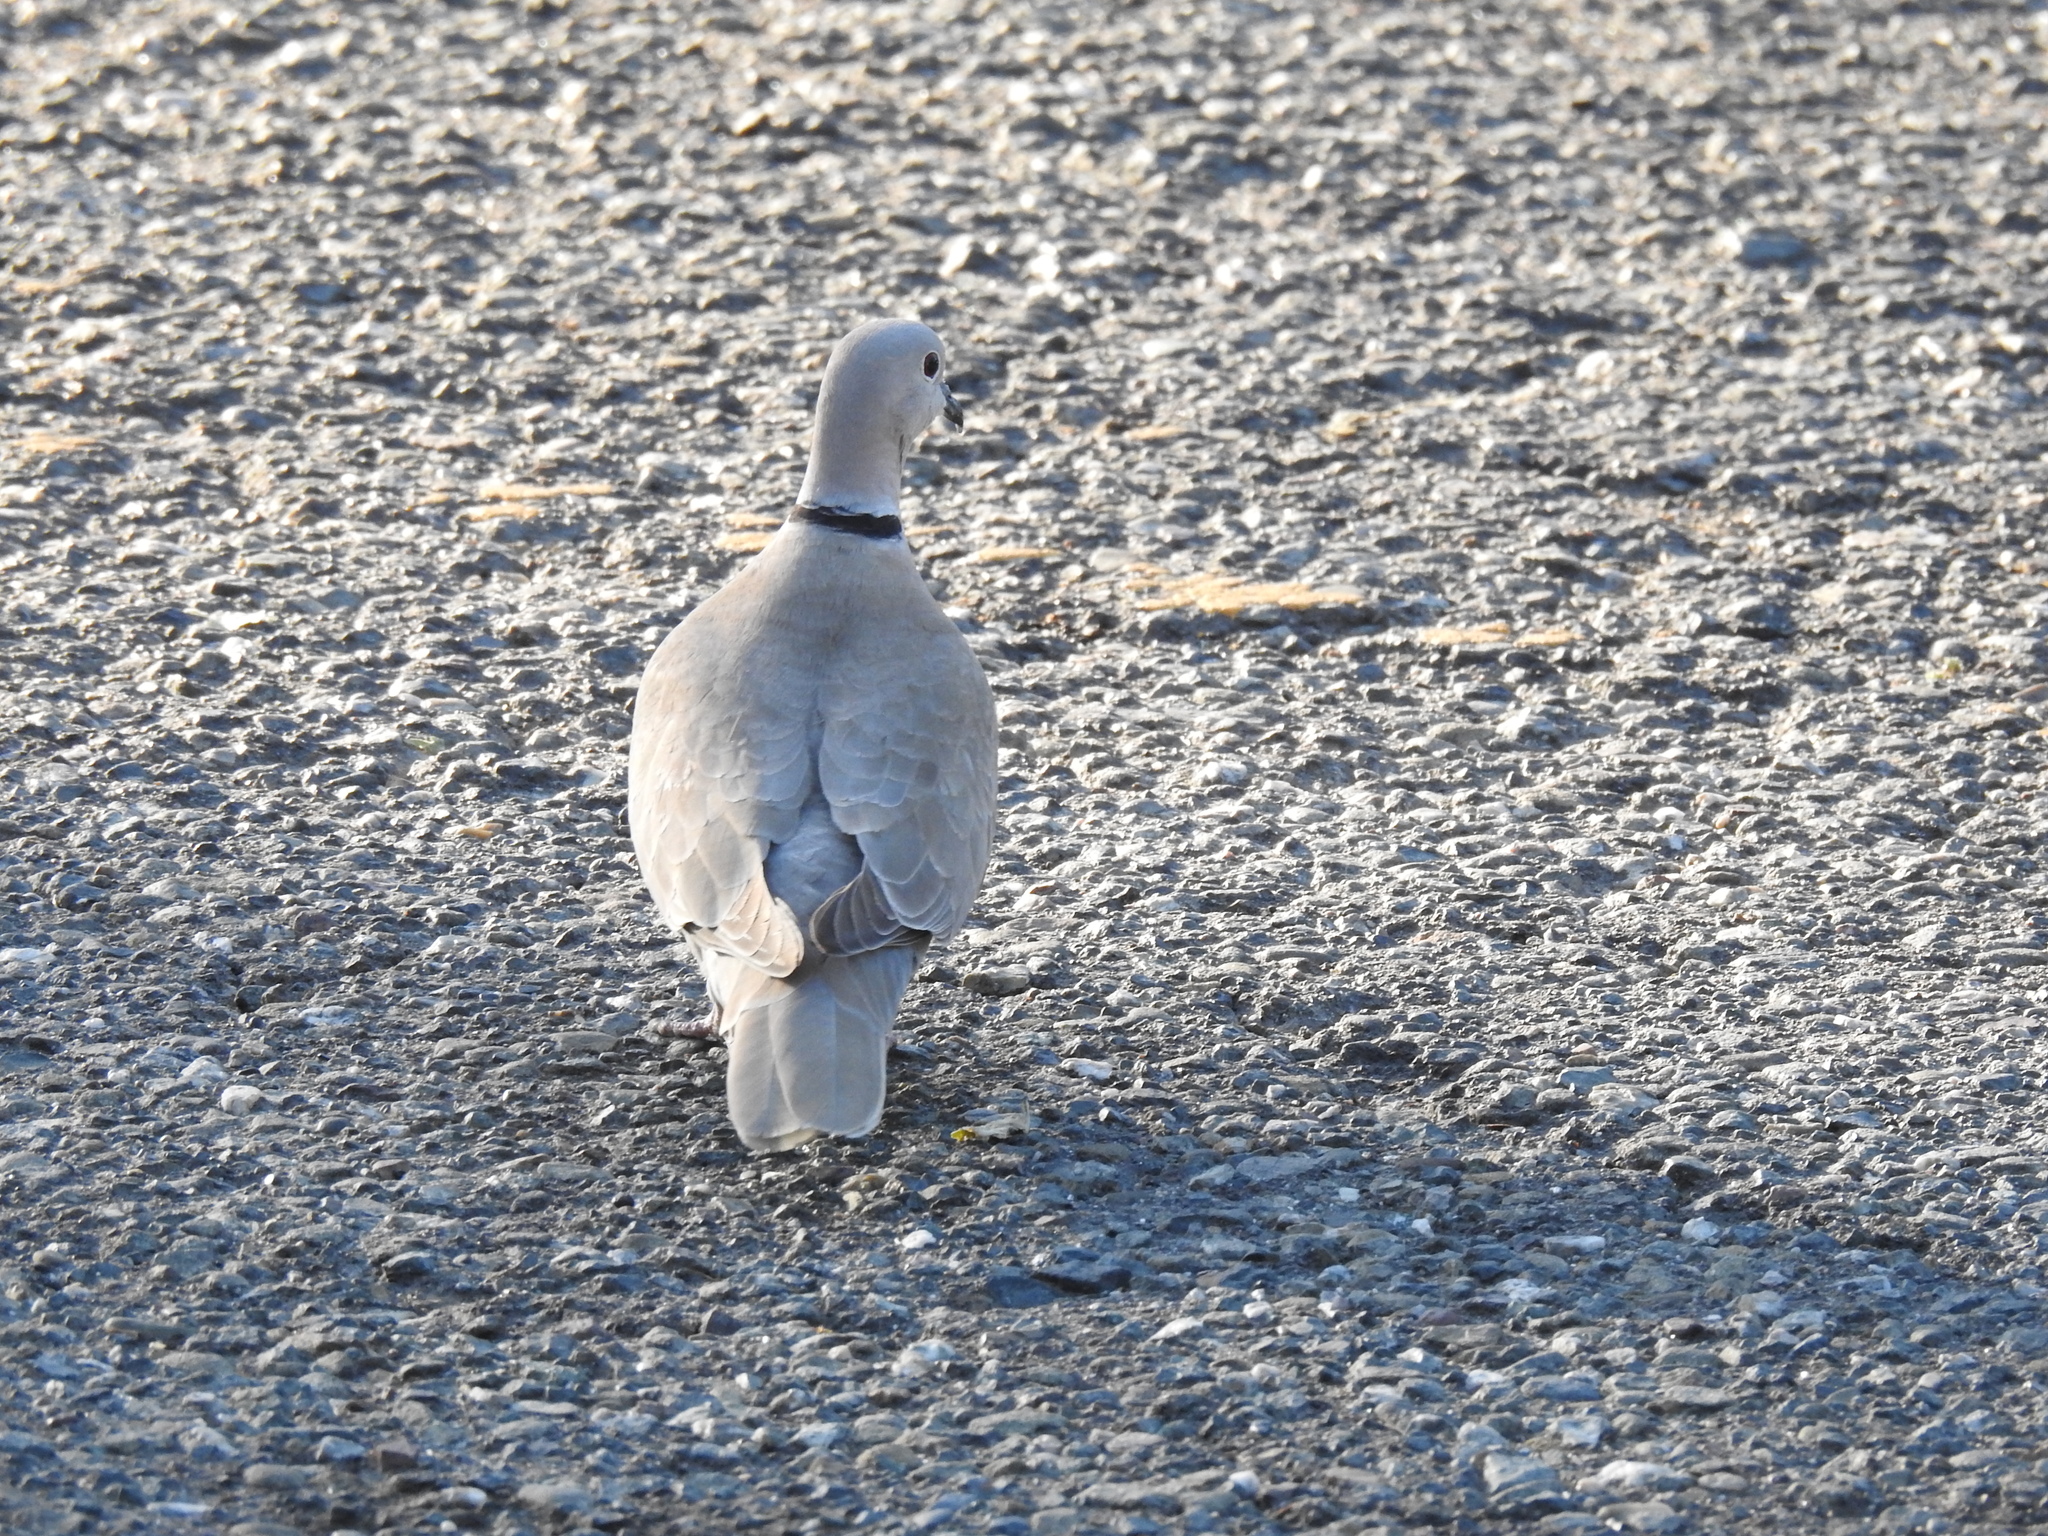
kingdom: Animalia
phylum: Chordata
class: Aves
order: Columbiformes
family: Columbidae
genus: Streptopelia
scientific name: Streptopelia decaocto
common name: Eurasian collared dove
